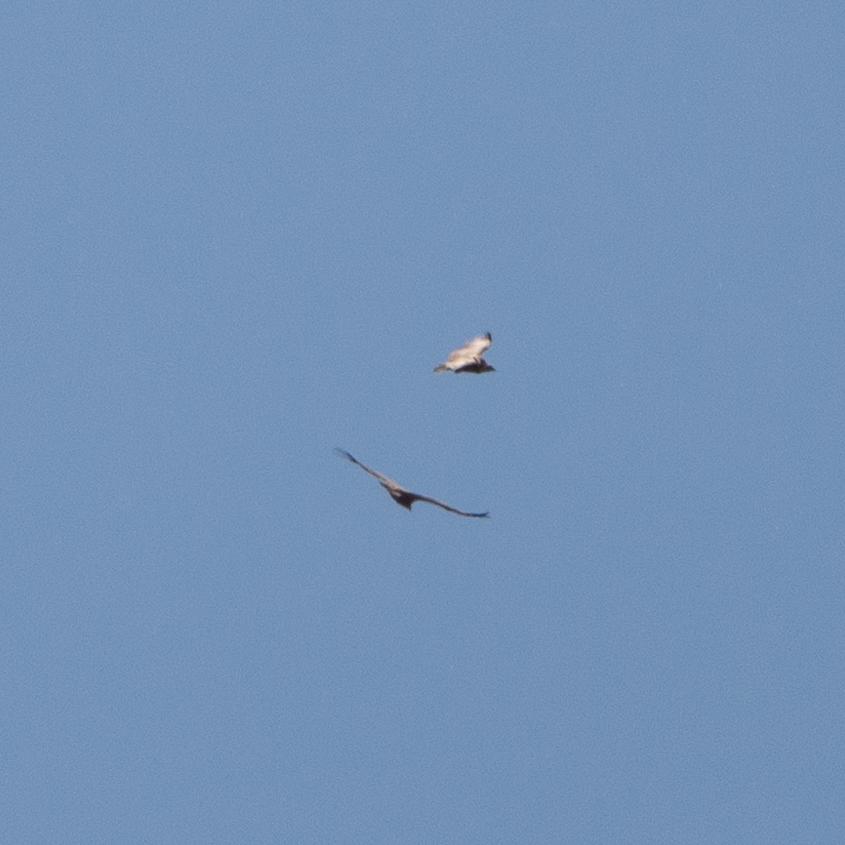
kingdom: Animalia
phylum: Chordata
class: Aves
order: Accipitriformes
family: Accipitridae
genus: Gyps
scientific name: Gyps fulvus
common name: Griffon vulture
